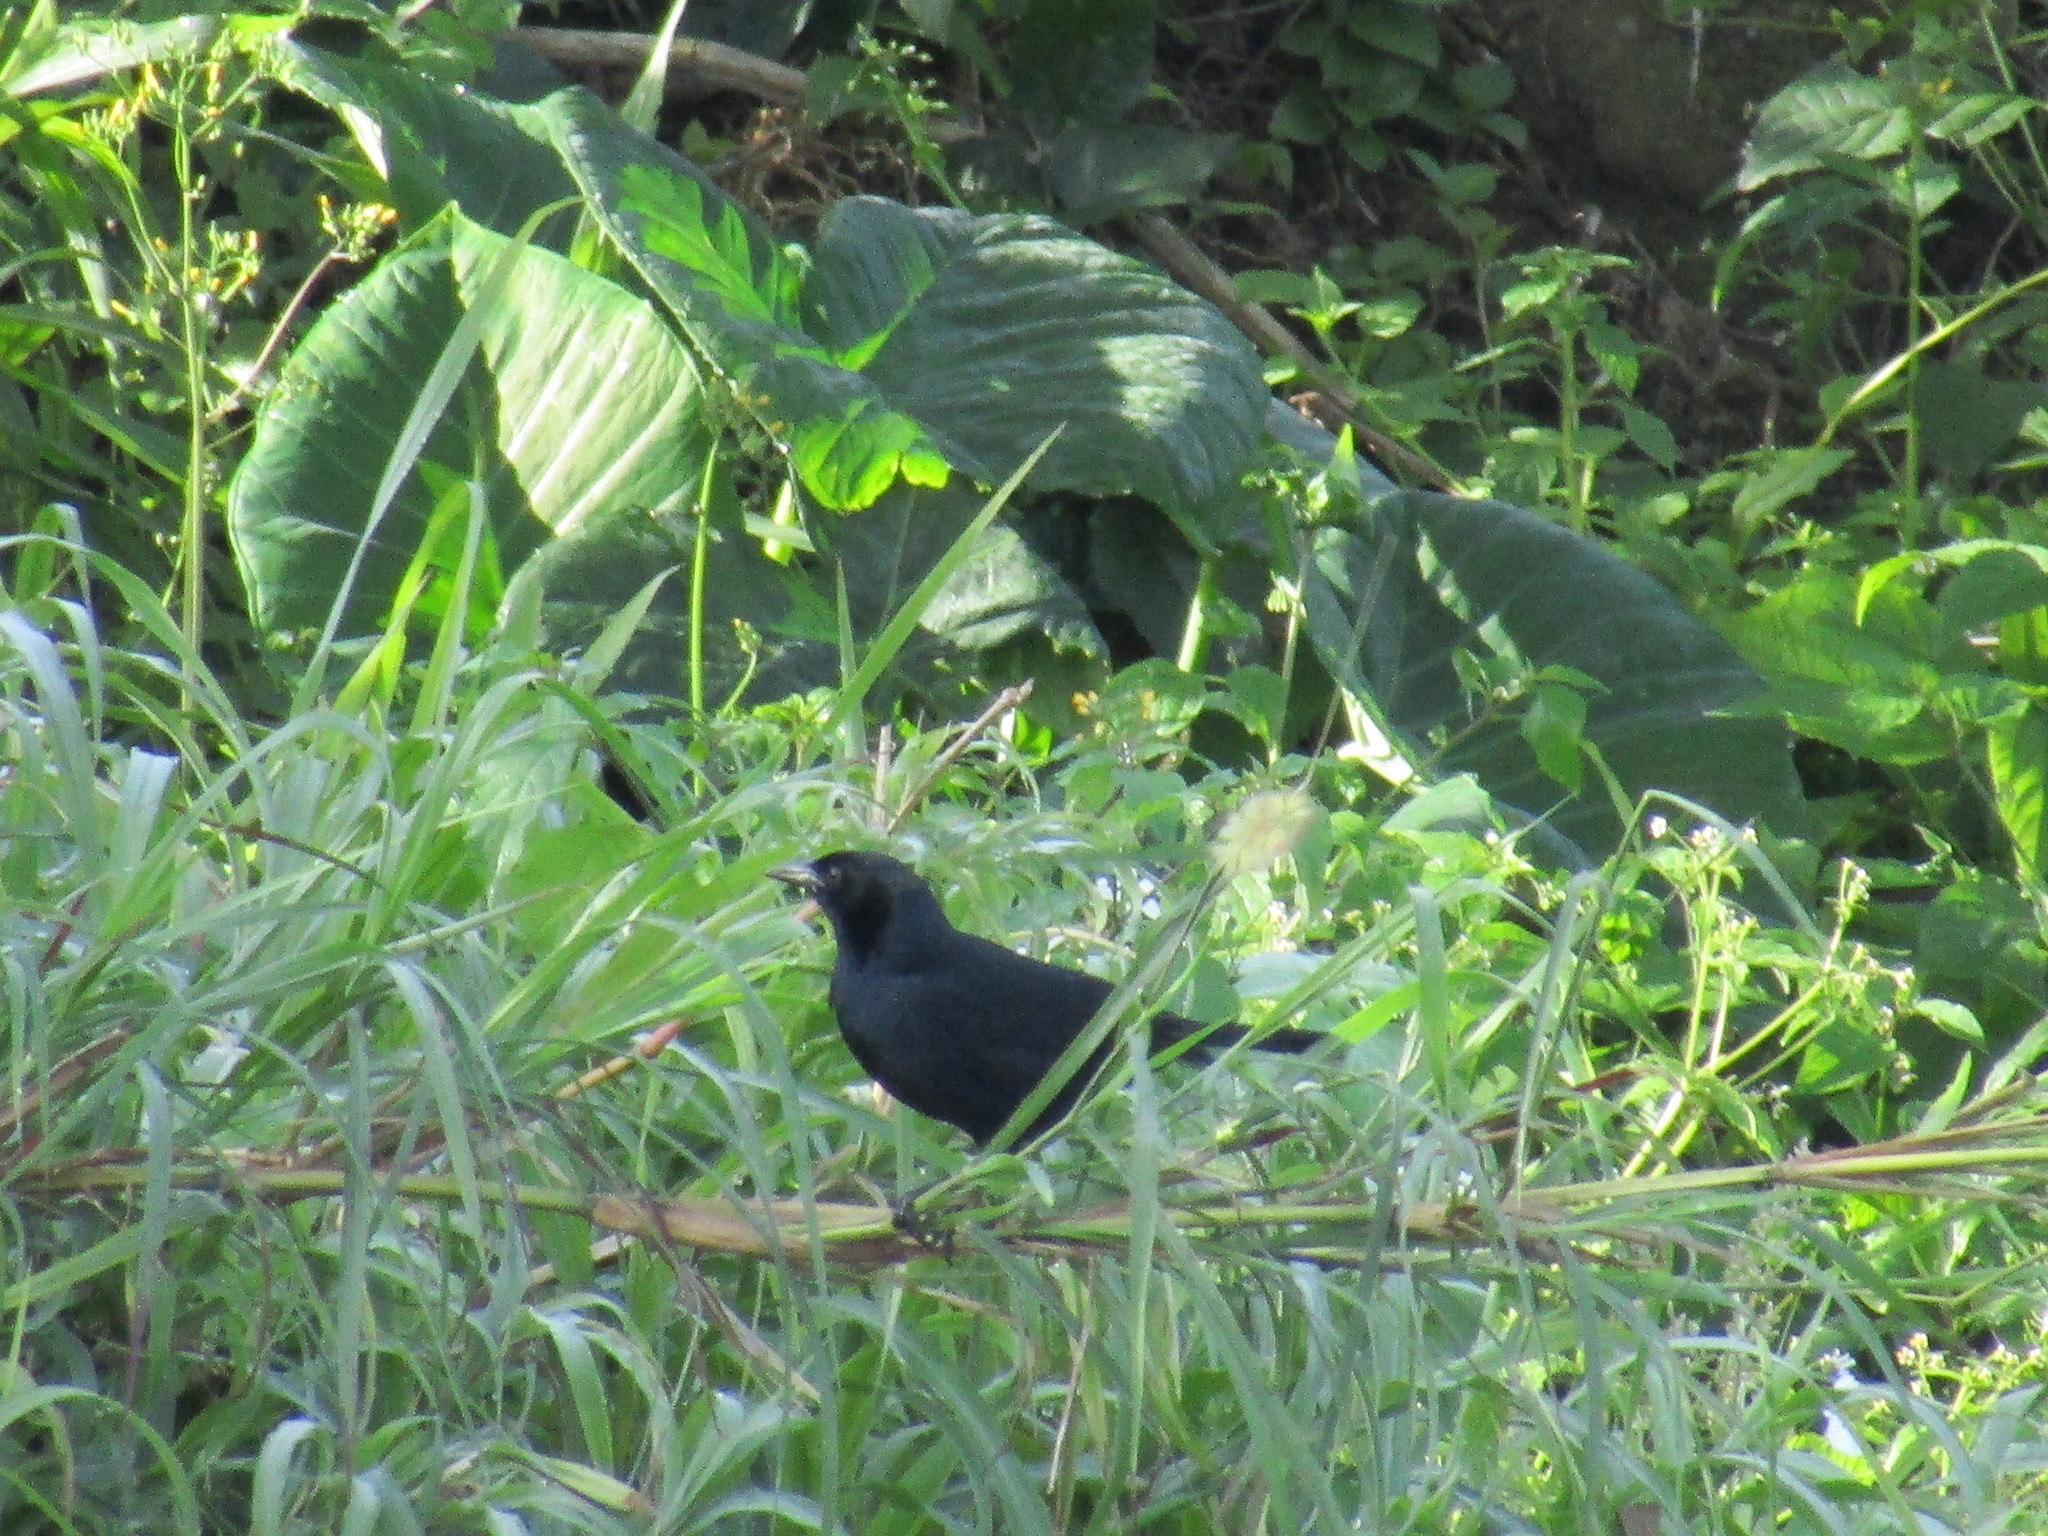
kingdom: Animalia
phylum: Chordata
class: Aves
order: Passeriformes
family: Icteridae
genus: Dives
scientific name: Dives dives
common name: Melodious blackbird
